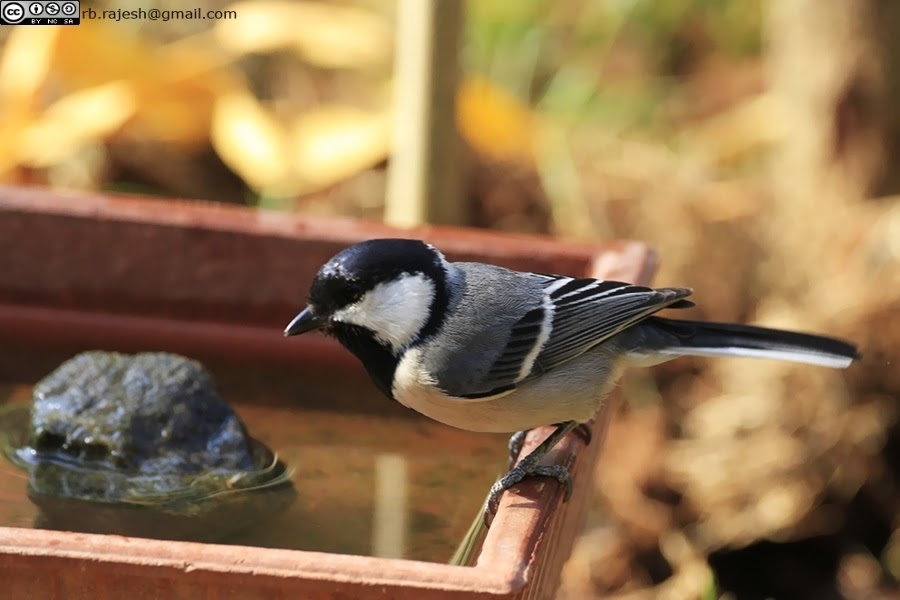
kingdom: Animalia
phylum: Chordata
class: Aves
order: Passeriformes
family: Paridae
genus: Parus
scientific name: Parus cinereus
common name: Cinereous tit
